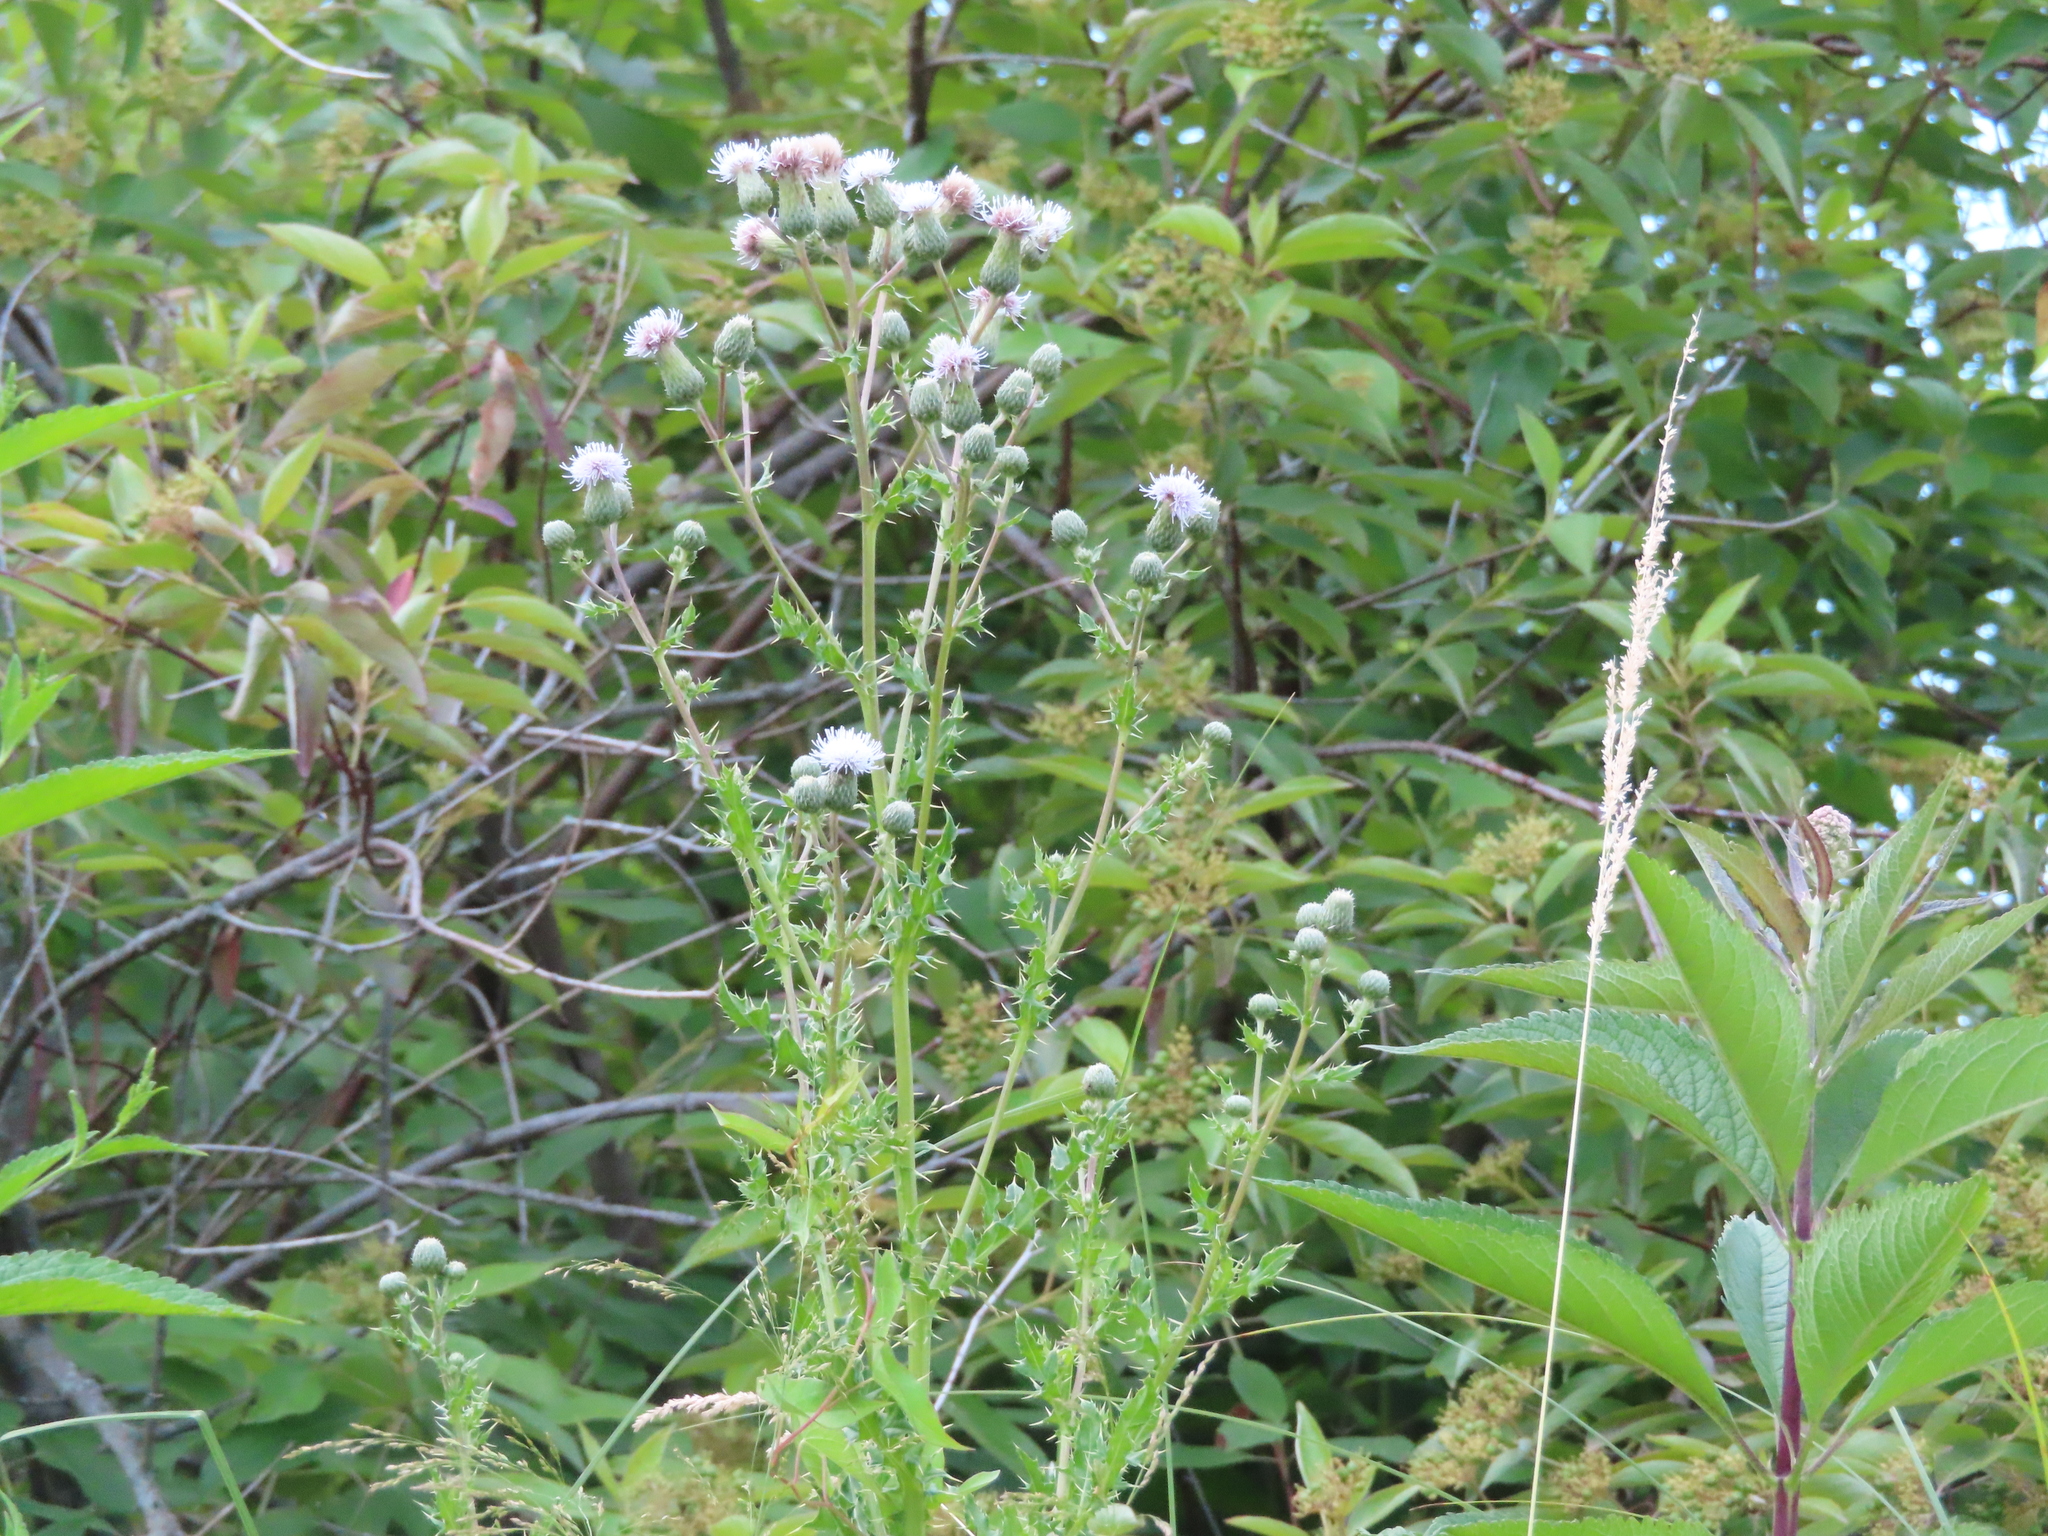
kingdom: Plantae
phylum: Tracheophyta
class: Magnoliopsida
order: Asterales
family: Asteraceae
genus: Cirsium
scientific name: Cirsium arvense
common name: Creeping thistle
